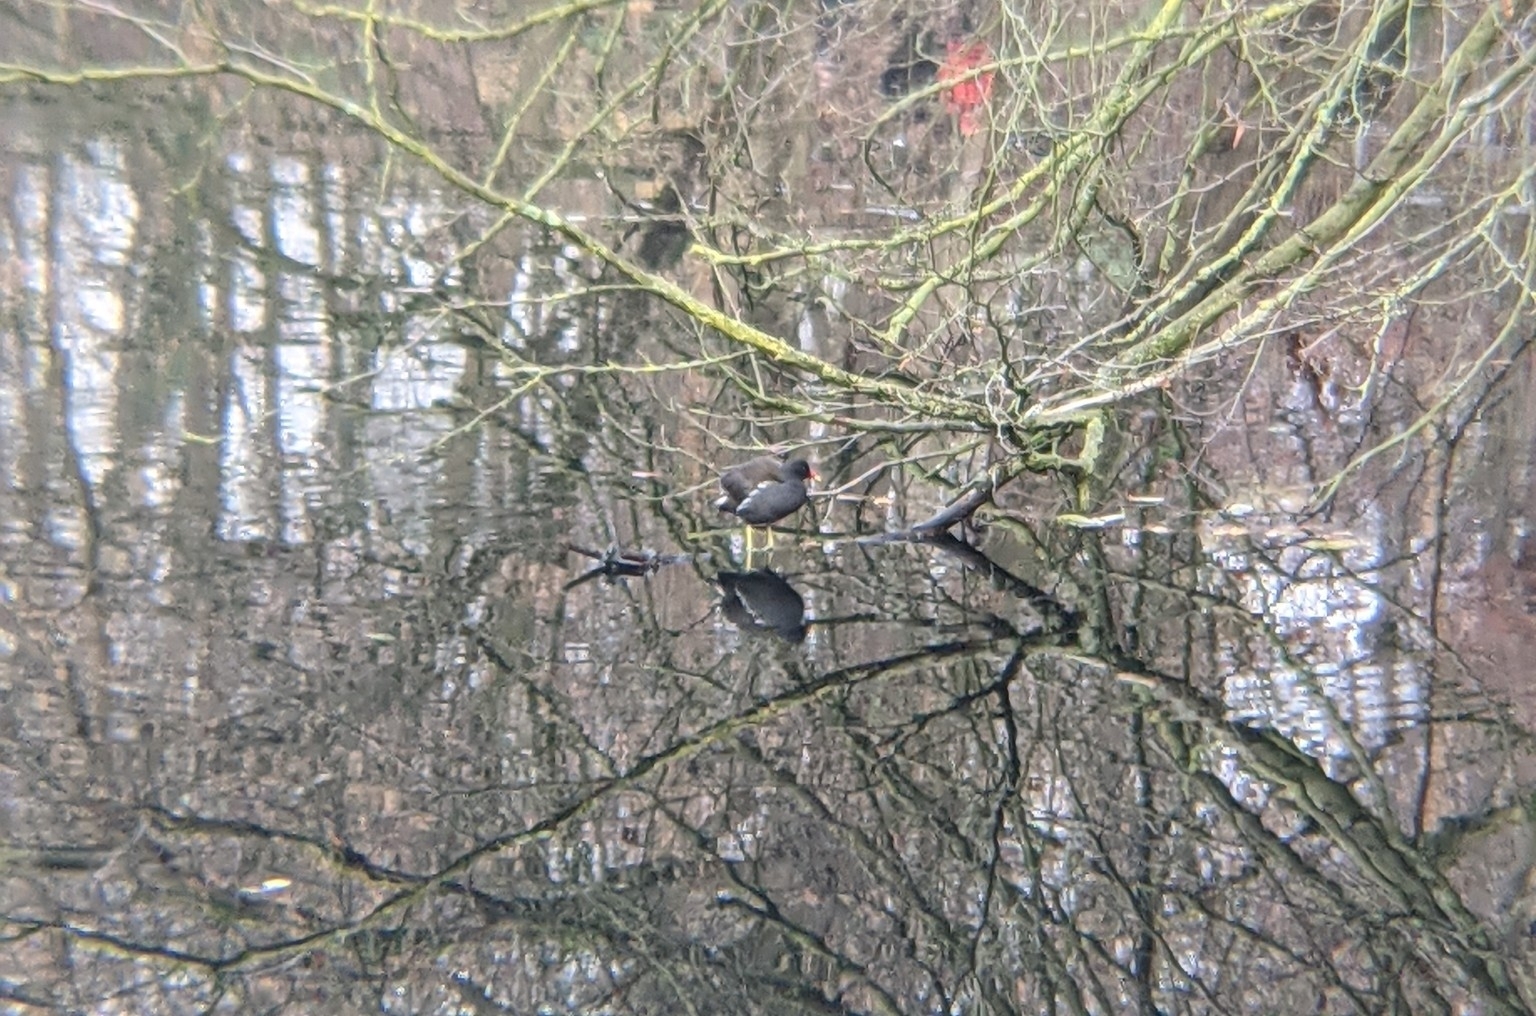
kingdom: Animalia
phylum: Chordata
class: Aves
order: Gruiformes
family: Rallidae
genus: Gallinula
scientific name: Gallinula chloropus
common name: Common moorhen
